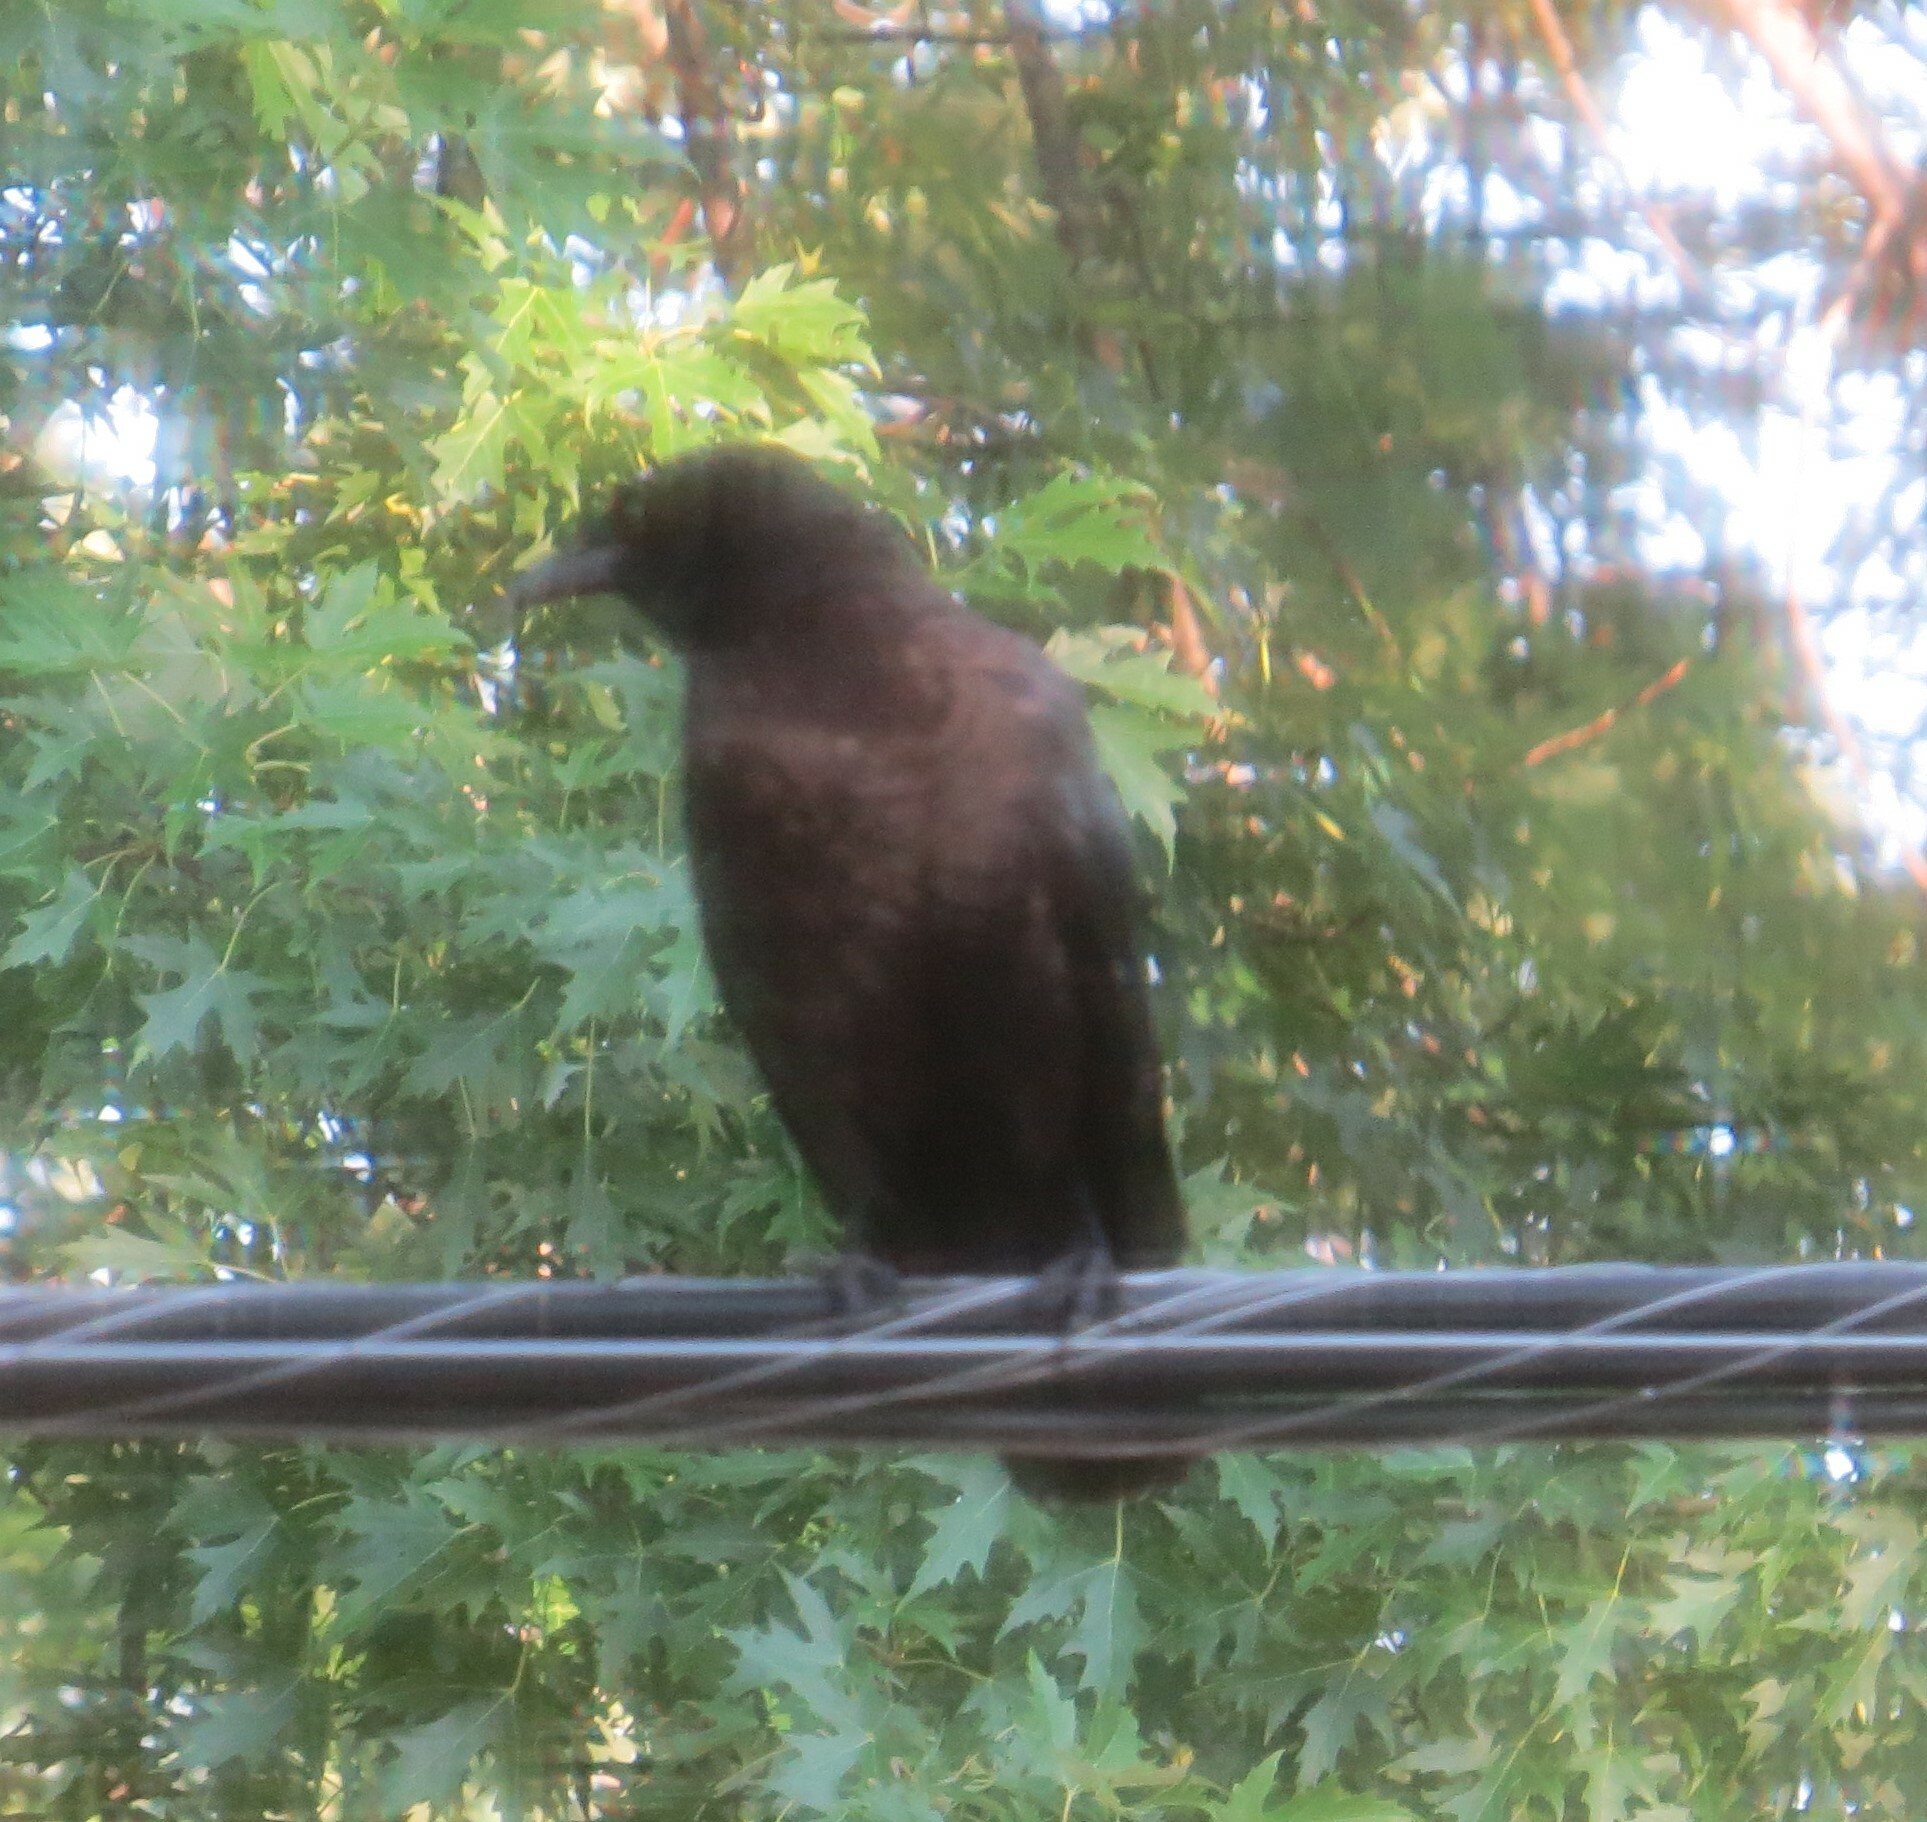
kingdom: Animalia
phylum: Chordata
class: Aves
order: Passeriformes
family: Corvidae
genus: Corvus
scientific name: Corvus brachyrhynchos
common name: American crow
